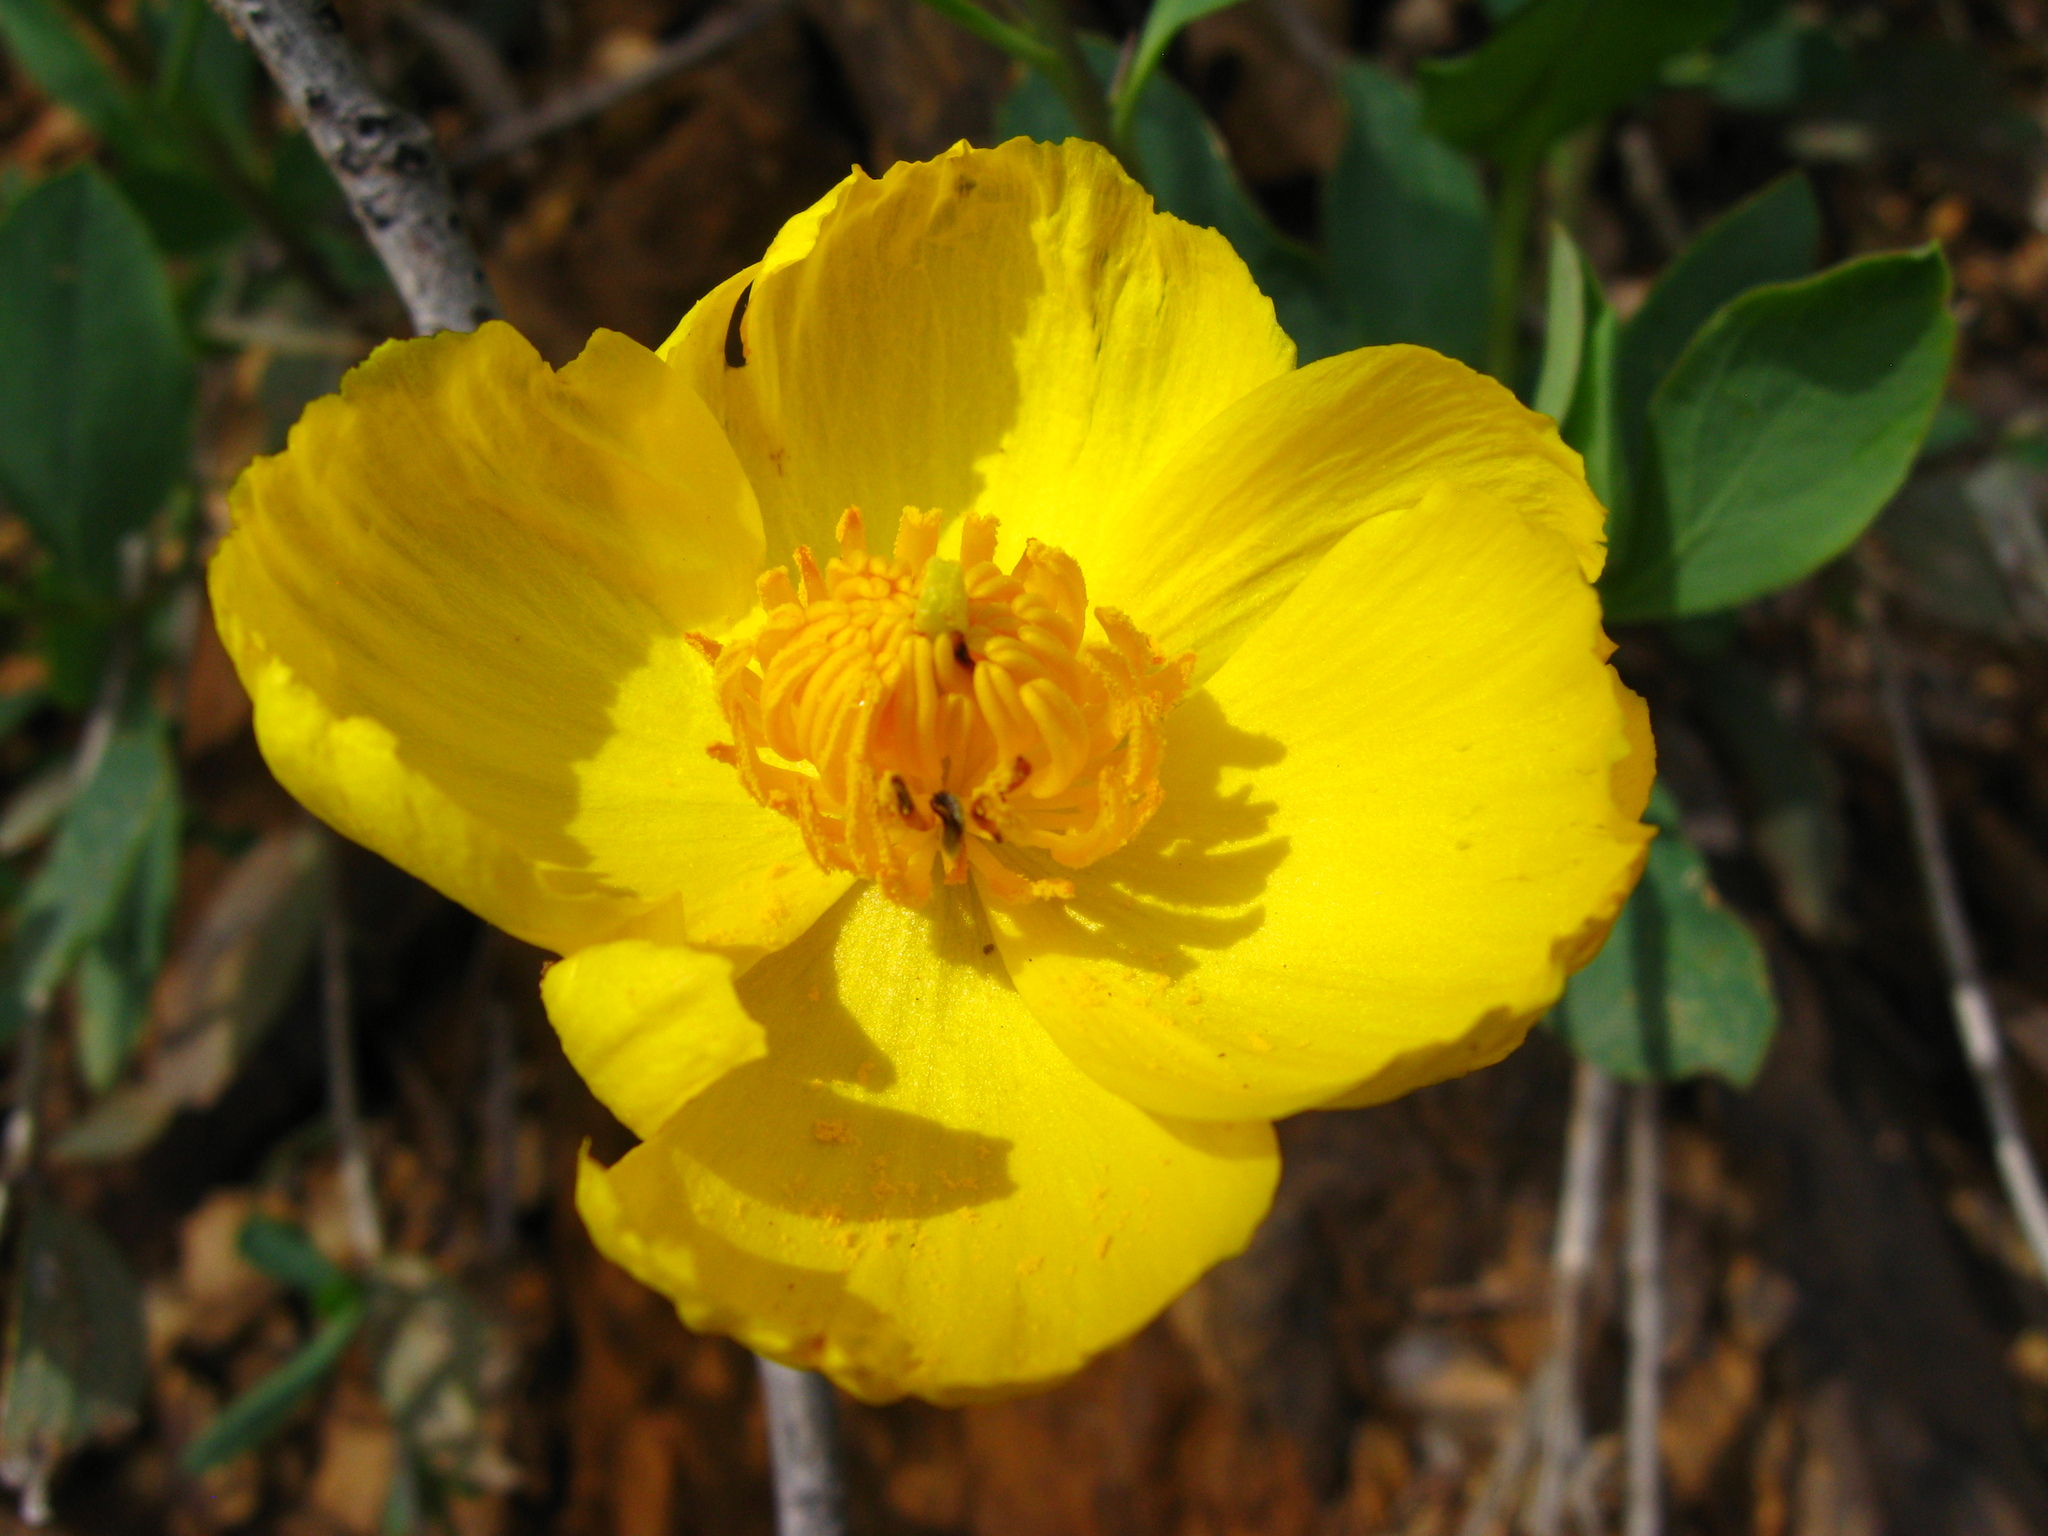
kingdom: Plantae
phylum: Tracheophyta
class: Magnoliopsida
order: Ranunculales
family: Papaveraceae
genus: Dendromecon
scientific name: Dendromecon rigida
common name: Tree poppy
